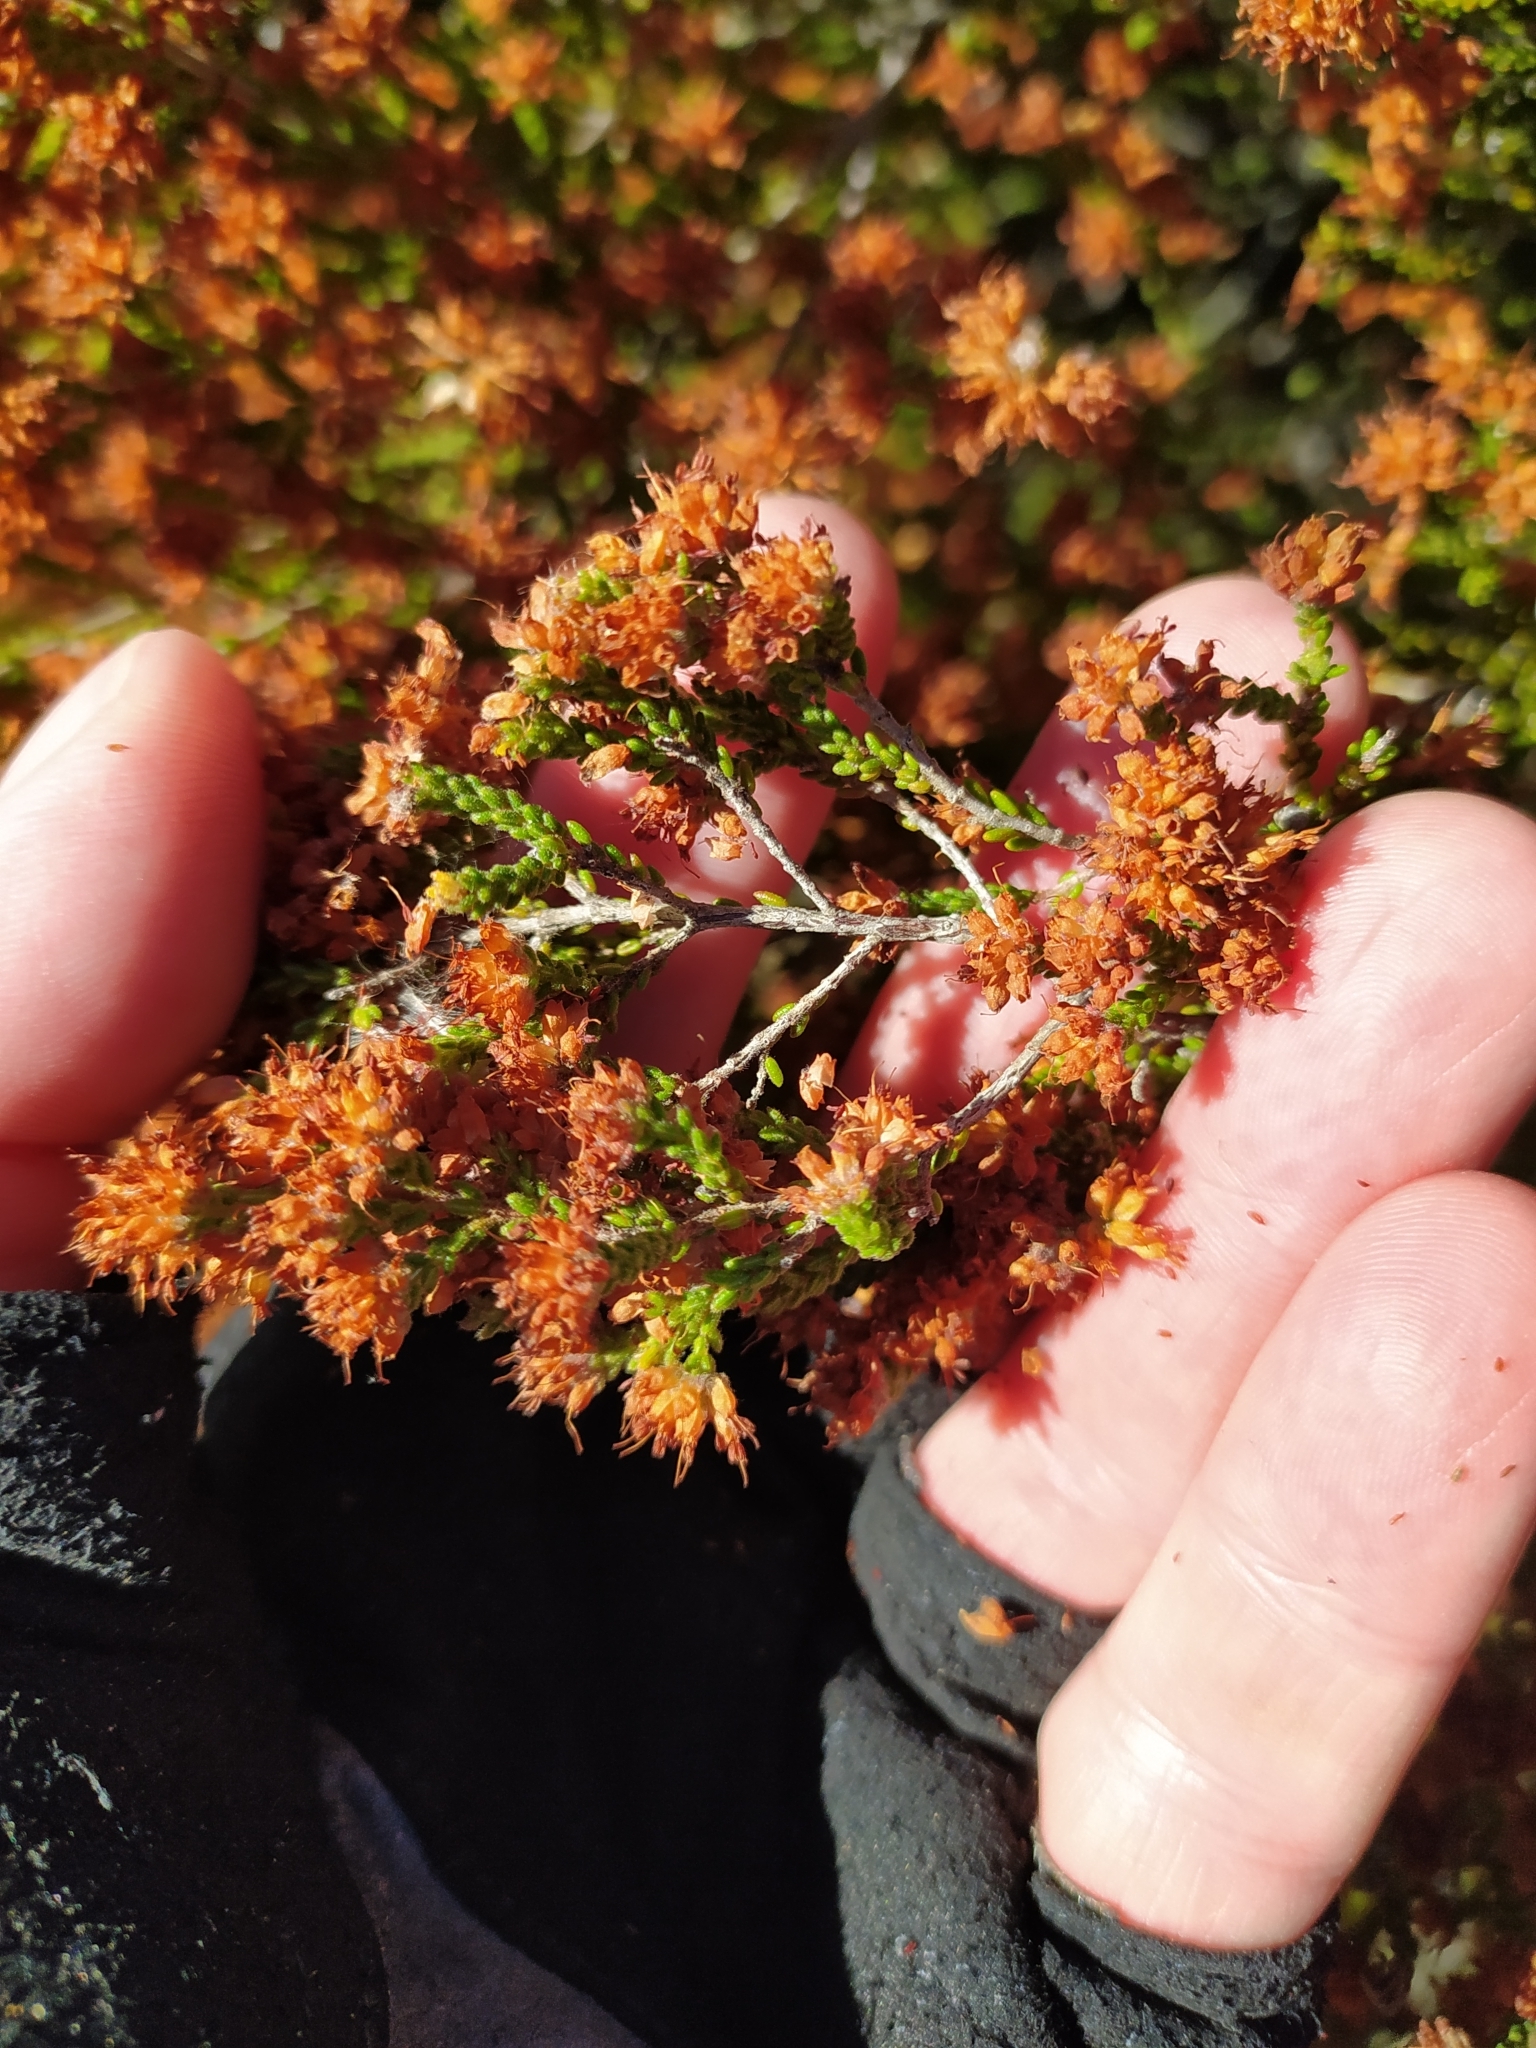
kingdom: Plantae
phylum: Tracheophyta
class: Magnoliopsida
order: Ericales
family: Ericaceae
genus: Erica
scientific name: Erica ericoides
